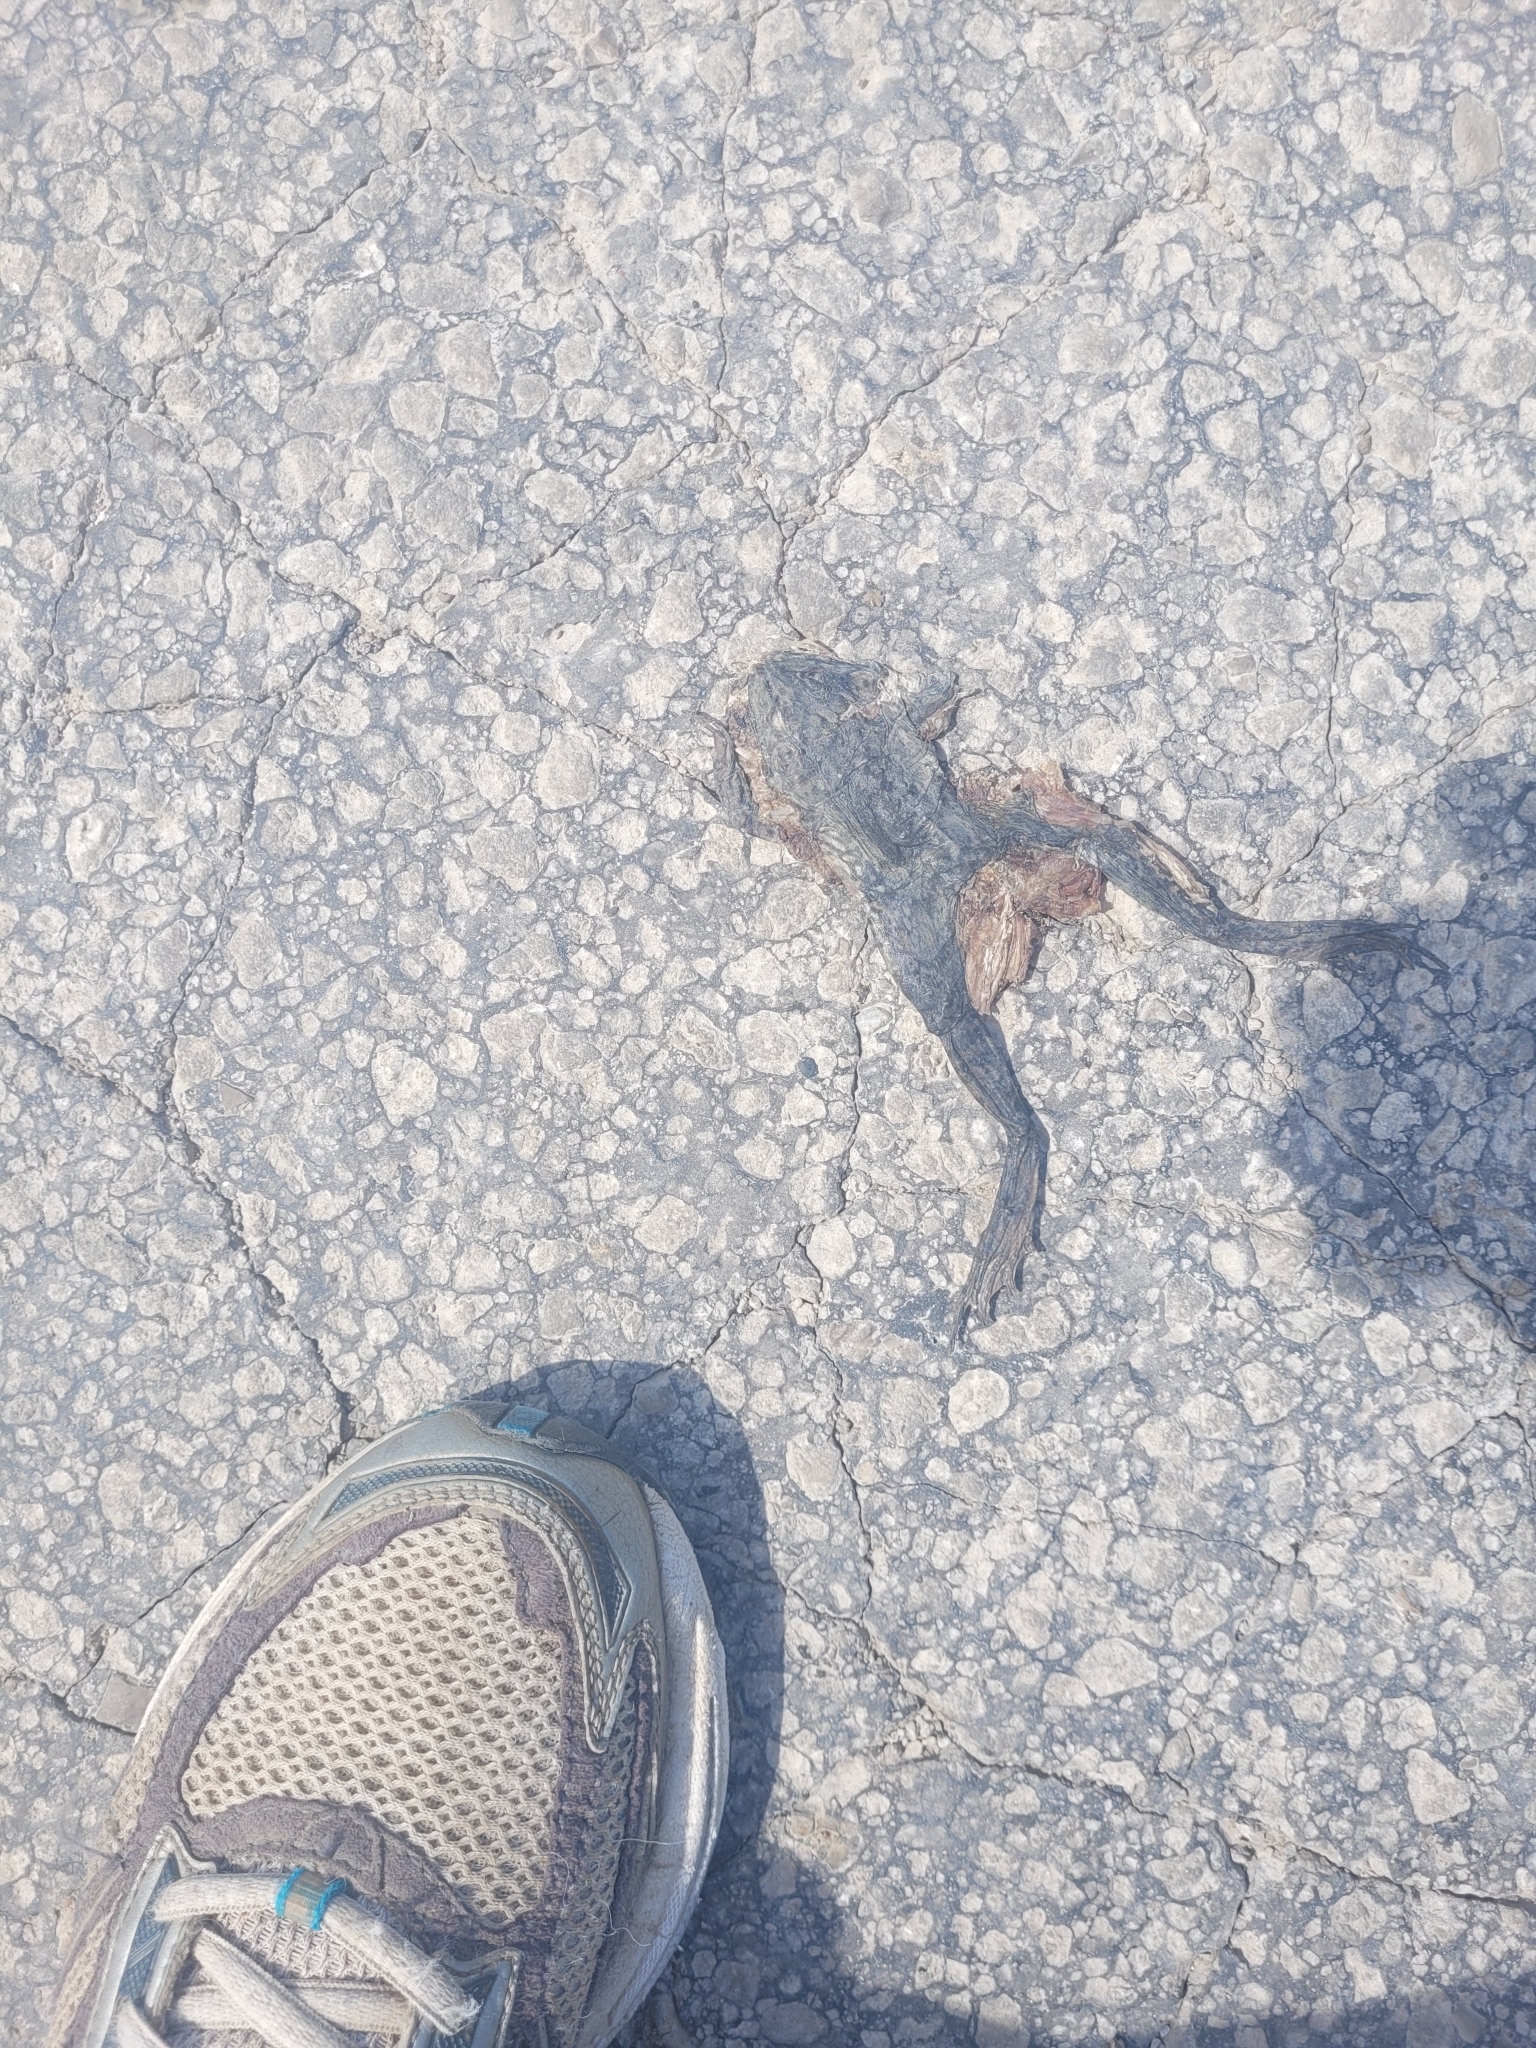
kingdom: Animalia
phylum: Chordata
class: Amphibia
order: Anura
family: Ranidae
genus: Lithobates
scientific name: Lithobates catesbeianus
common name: American bullfrog
